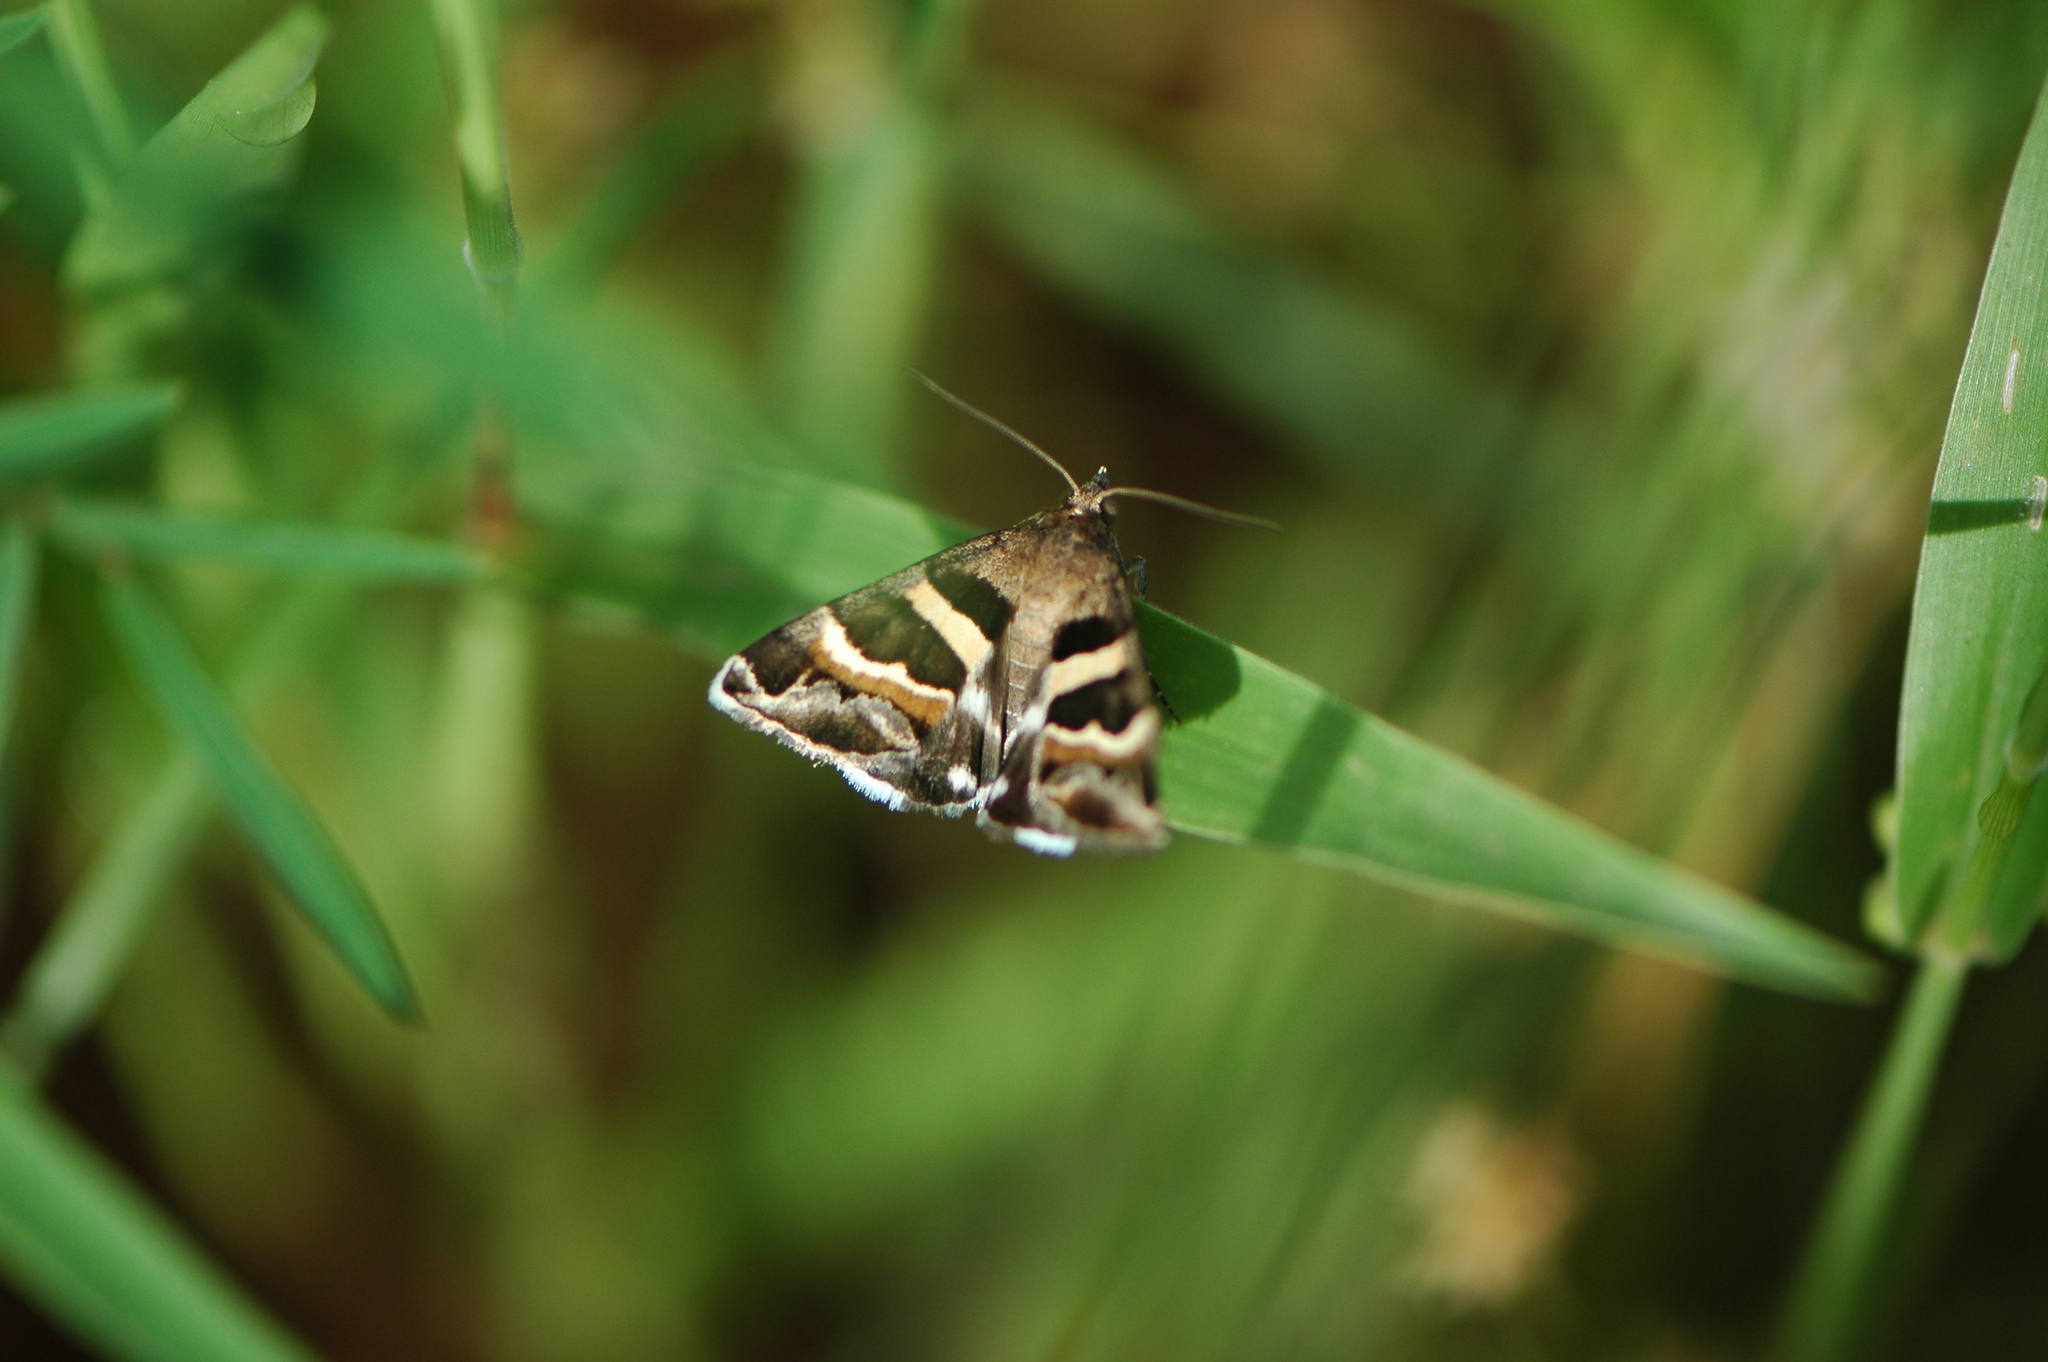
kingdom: Animalia
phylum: Arthropoda
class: Insecta
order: Lepidoptera
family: Erebidae
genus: Grammodes
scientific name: Grammodes stolida
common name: Geometrician
